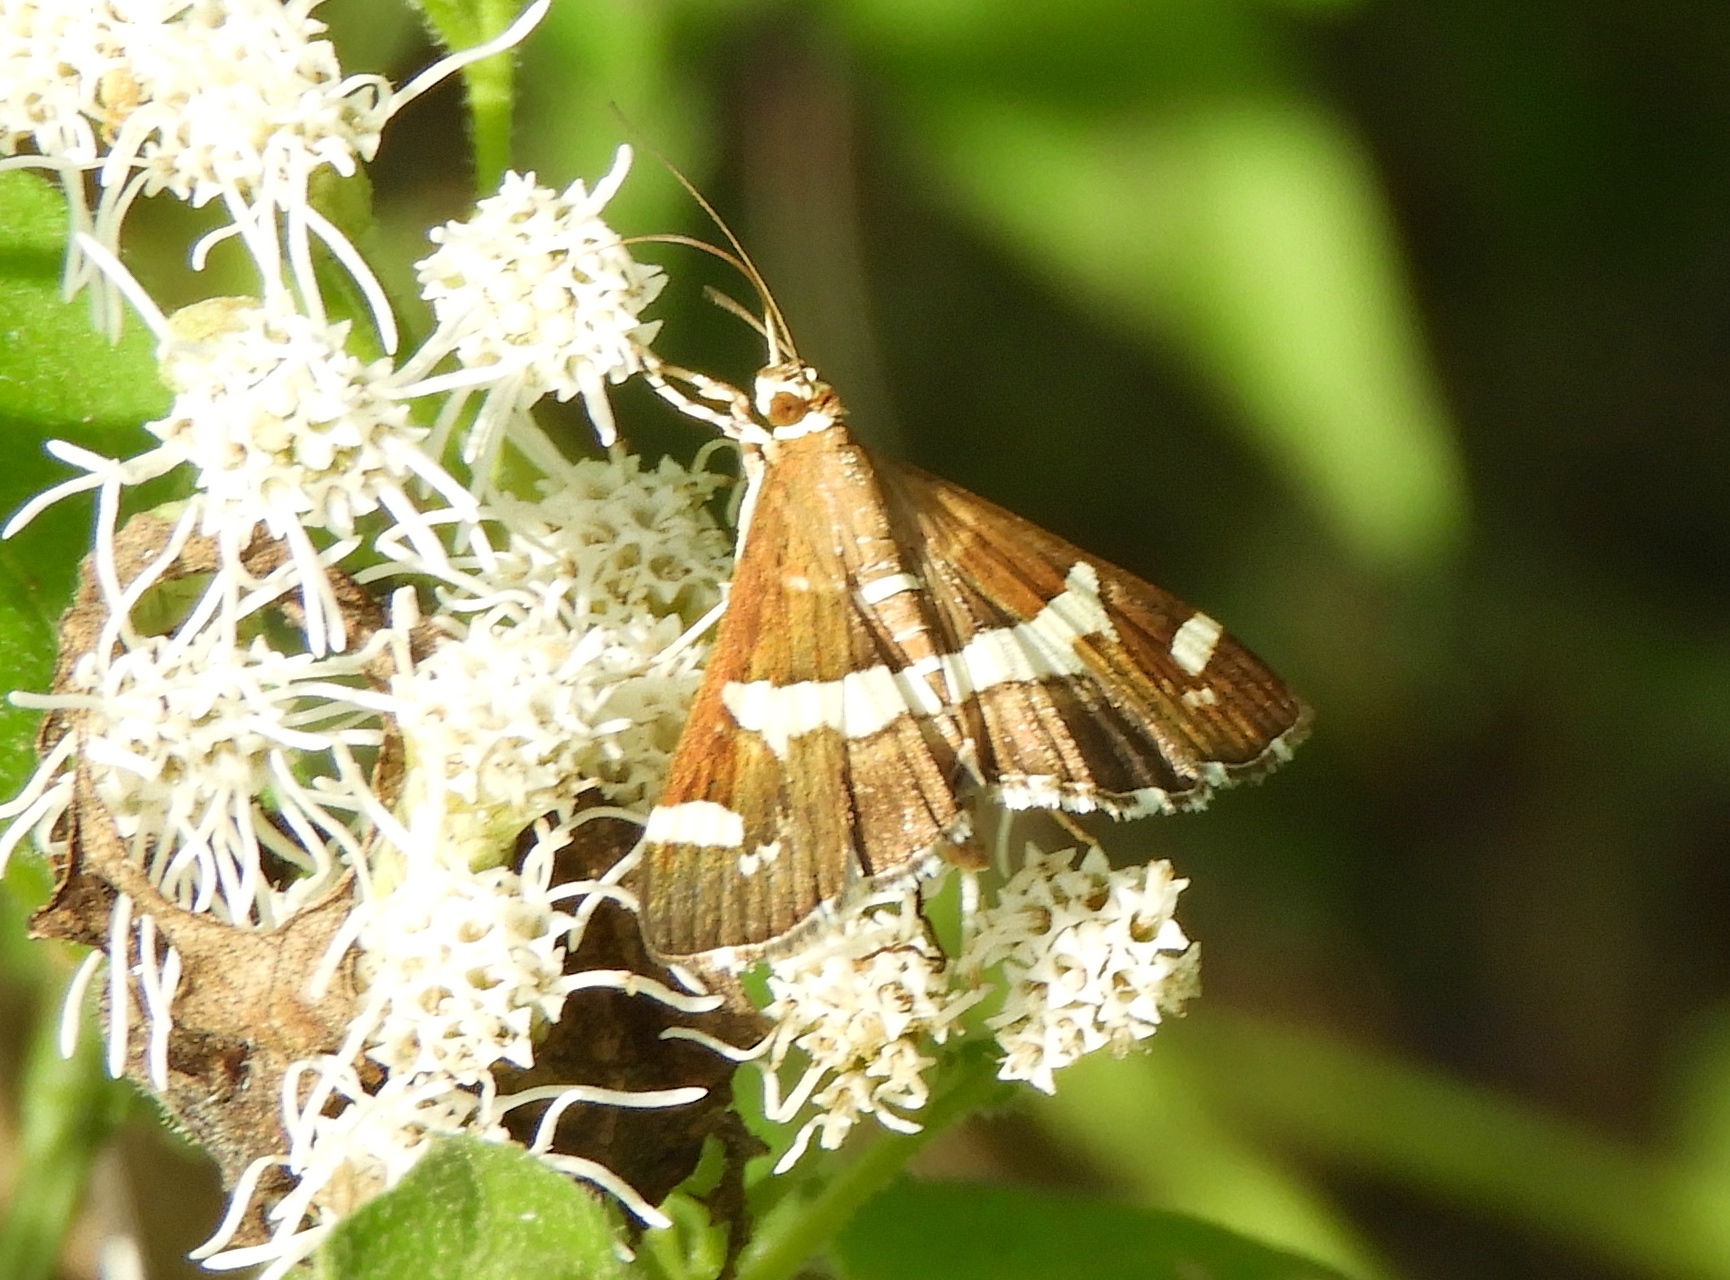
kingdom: Animalia
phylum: Arthropoda
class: Insecta
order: Lepidoptera
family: Crambidae
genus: Spoladea
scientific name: Spoladea recurvalis
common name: Beet webworm moth
